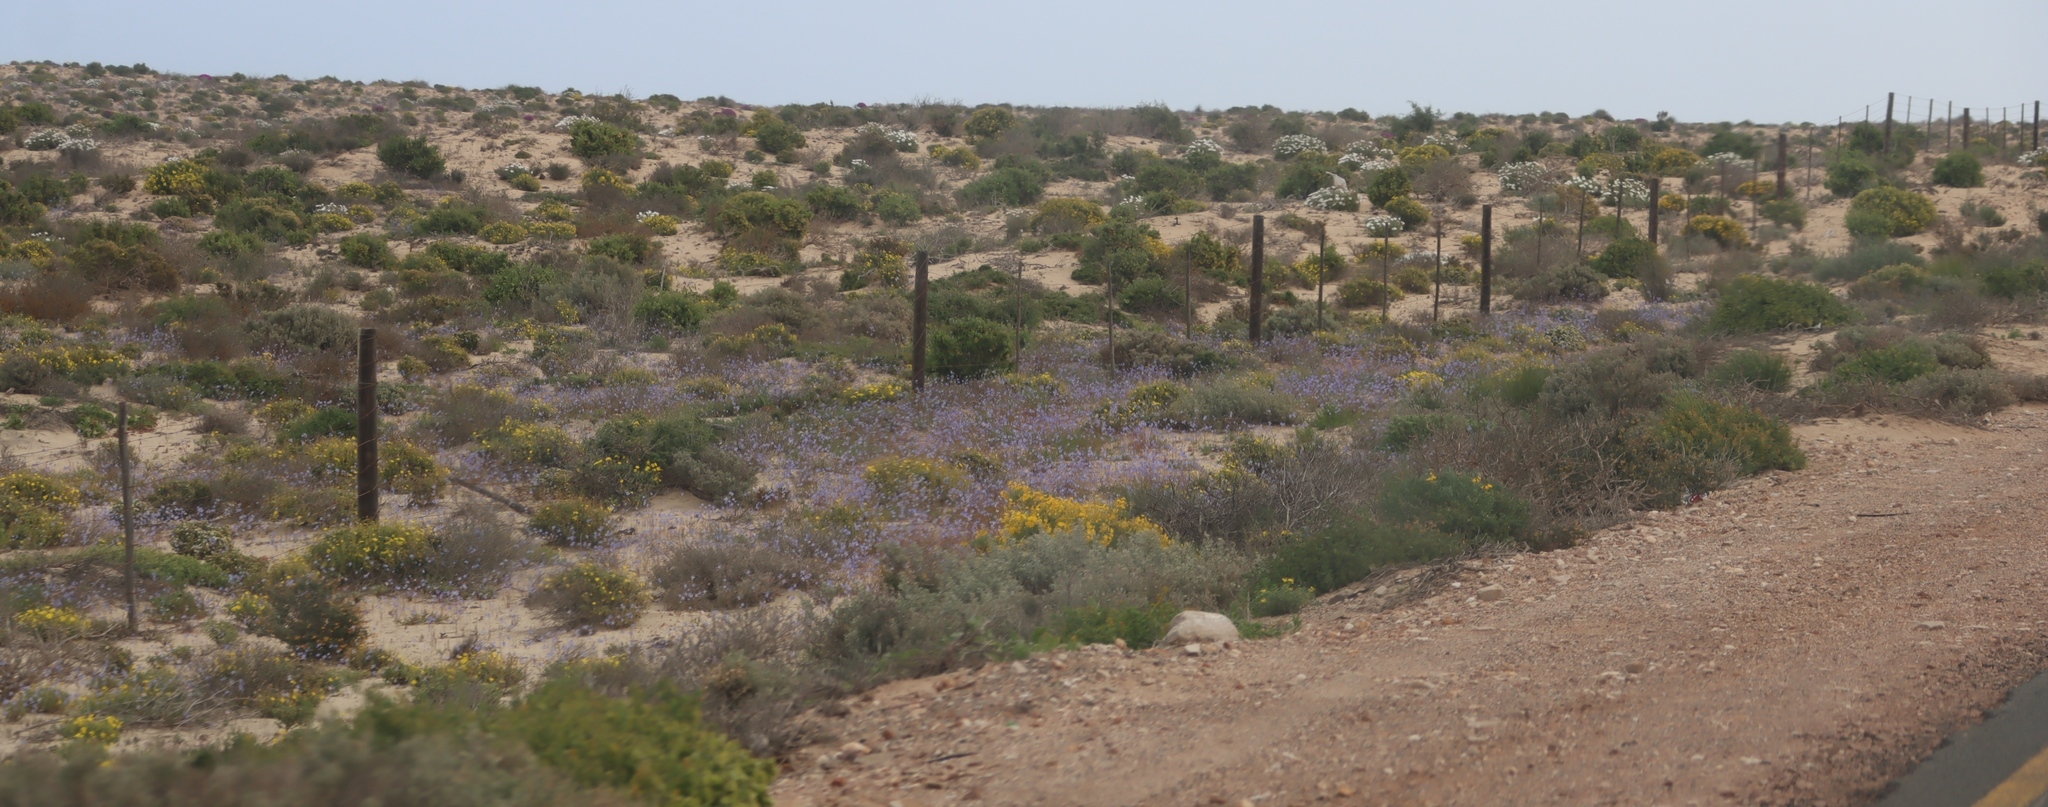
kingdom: Plantae
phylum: Tracheophyta
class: Magnoliopsida
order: Brassicales
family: Brassicaceae
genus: Heliophila
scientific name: Heliophila lactea
